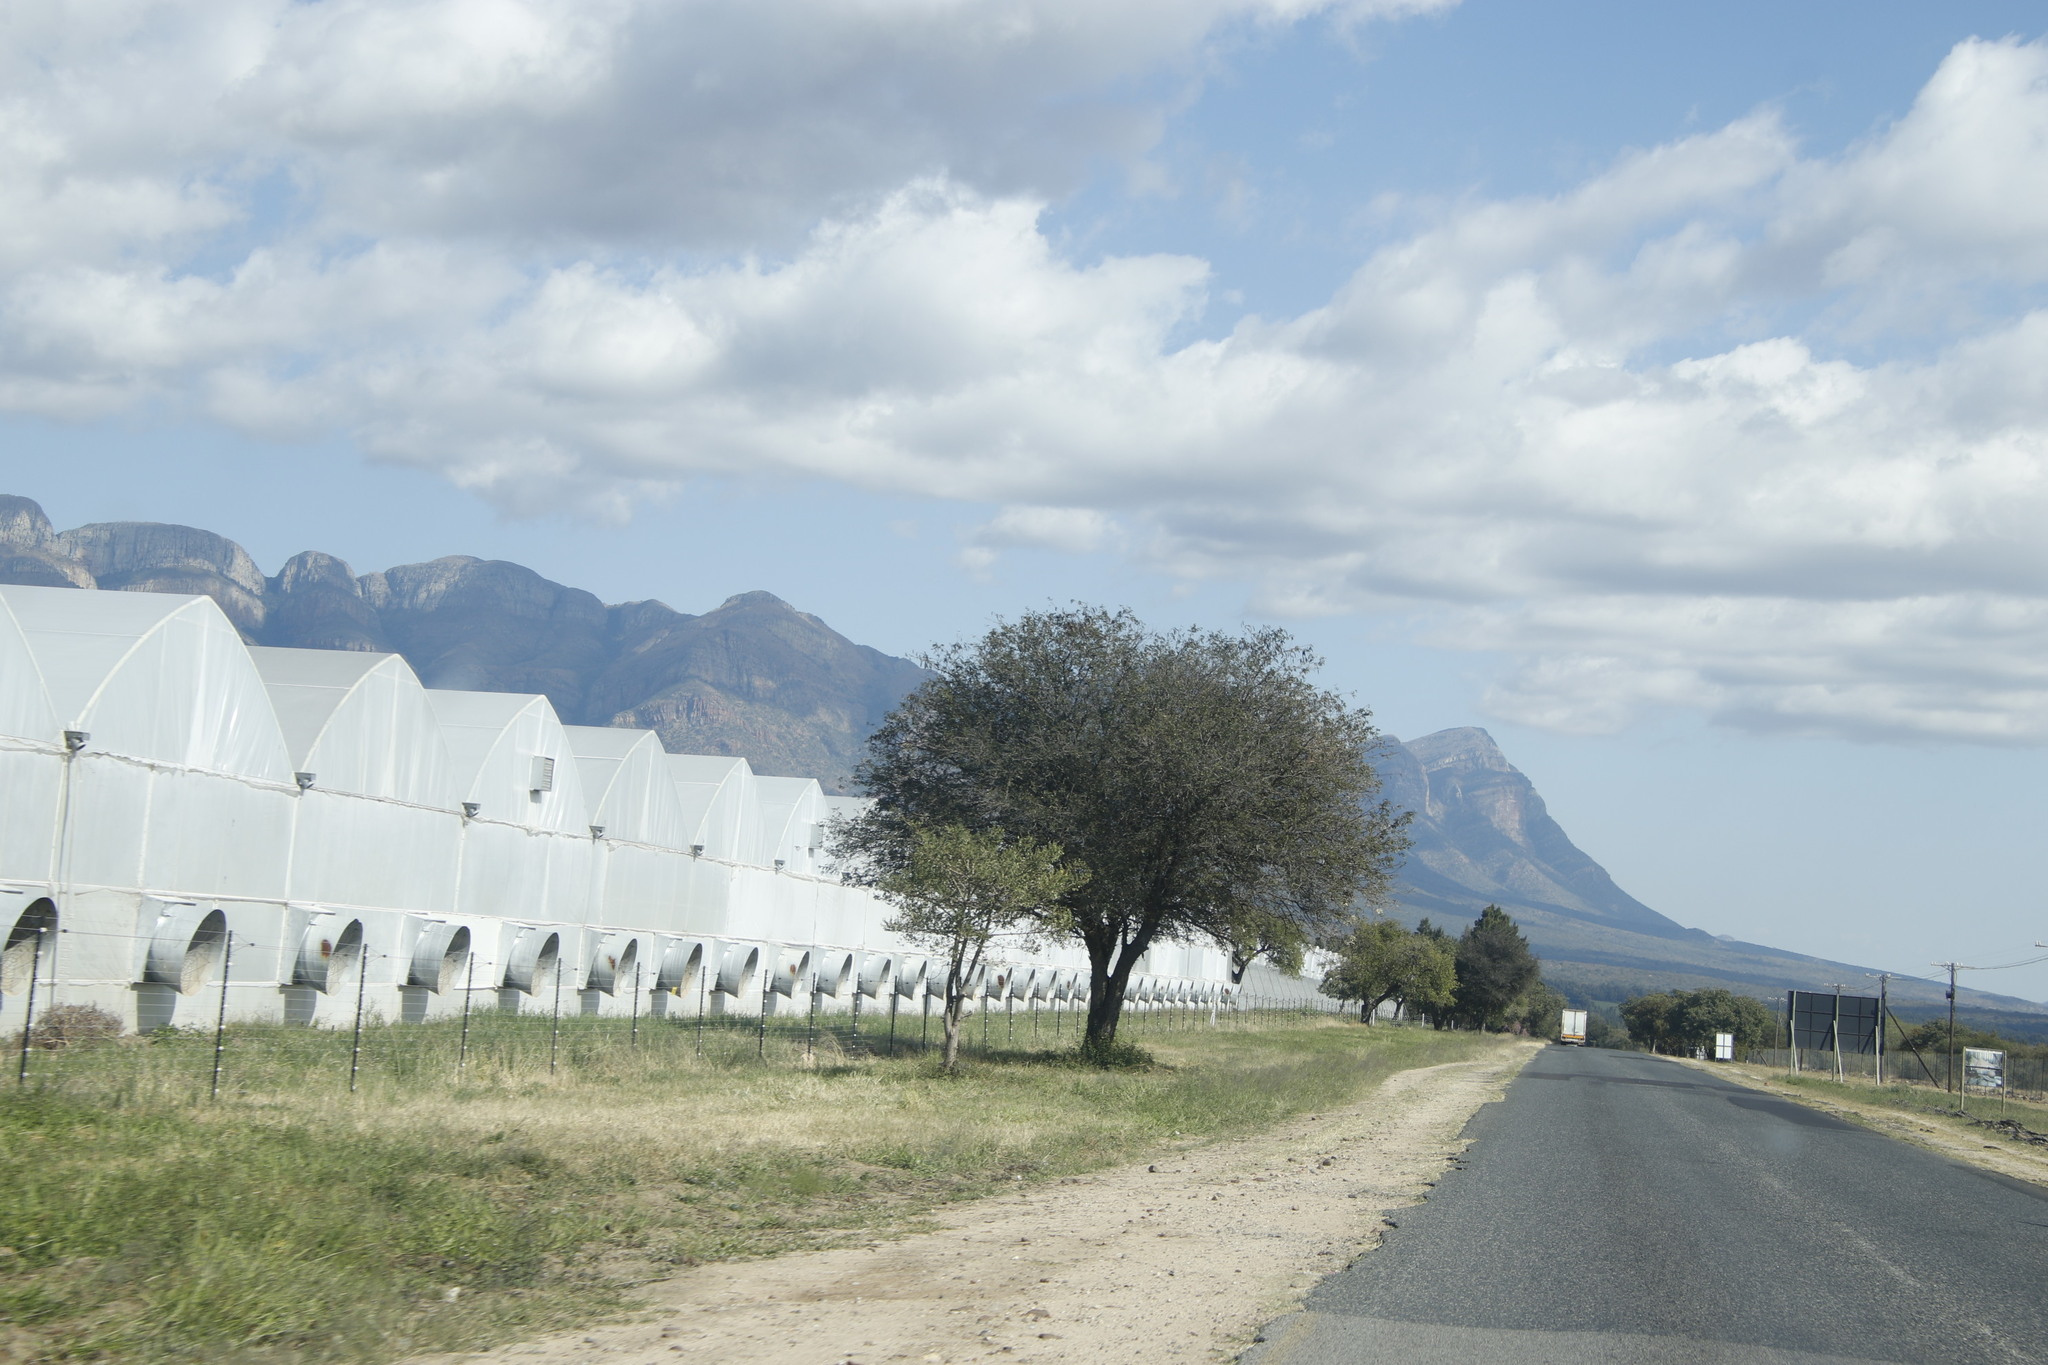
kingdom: Plantae
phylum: Tracheophyta
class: Magnoliopsida
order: Fabales
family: Fabaceae
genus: Senegalia
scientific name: Senegalia nigrescens
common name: Knobthorn
